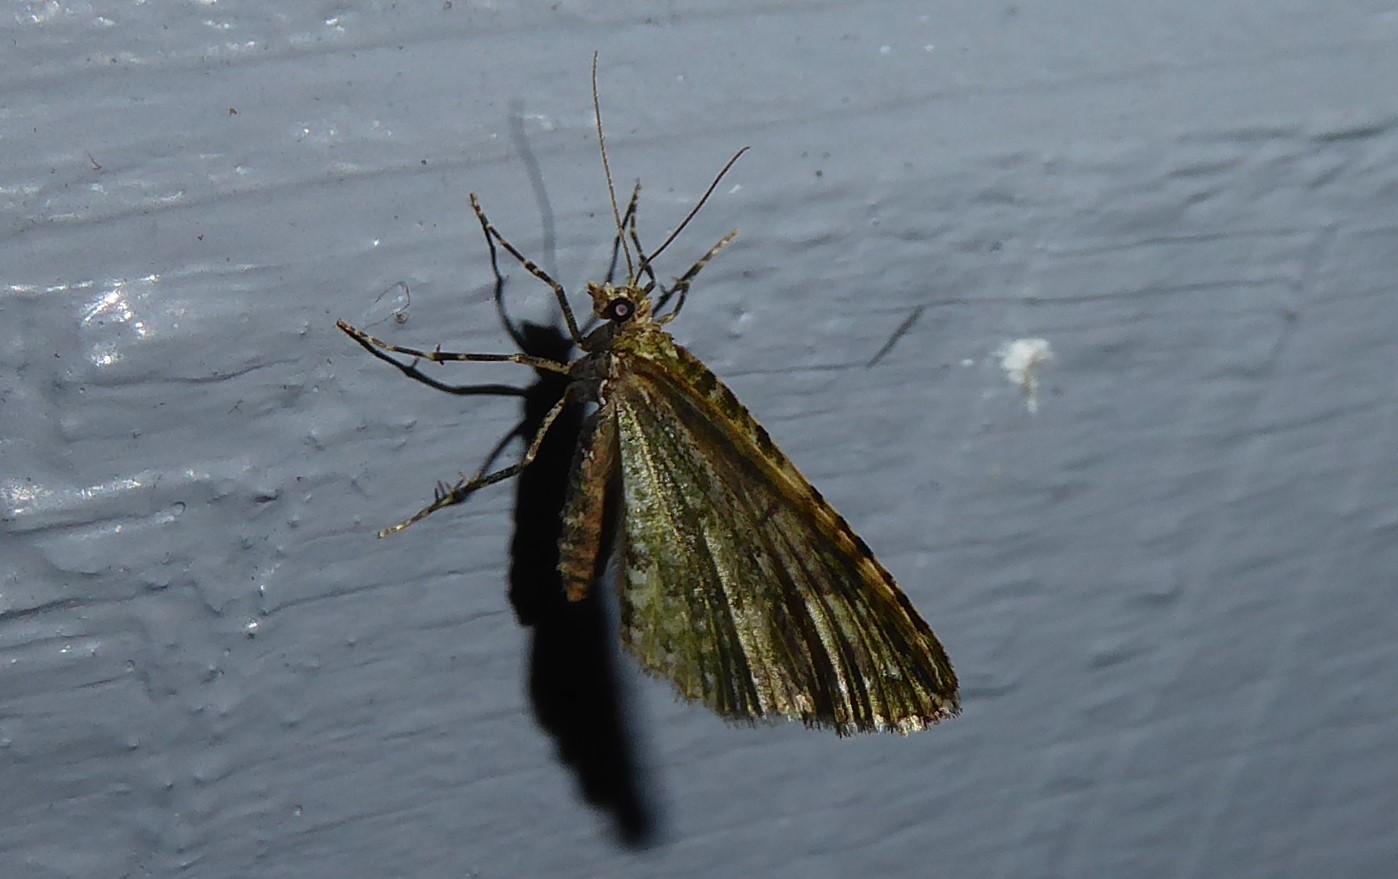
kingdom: Animalia
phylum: Arthropoda
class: Insecta
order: Lepidoptera
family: Geometridae
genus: Asaphodes
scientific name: Asaphodes beata
